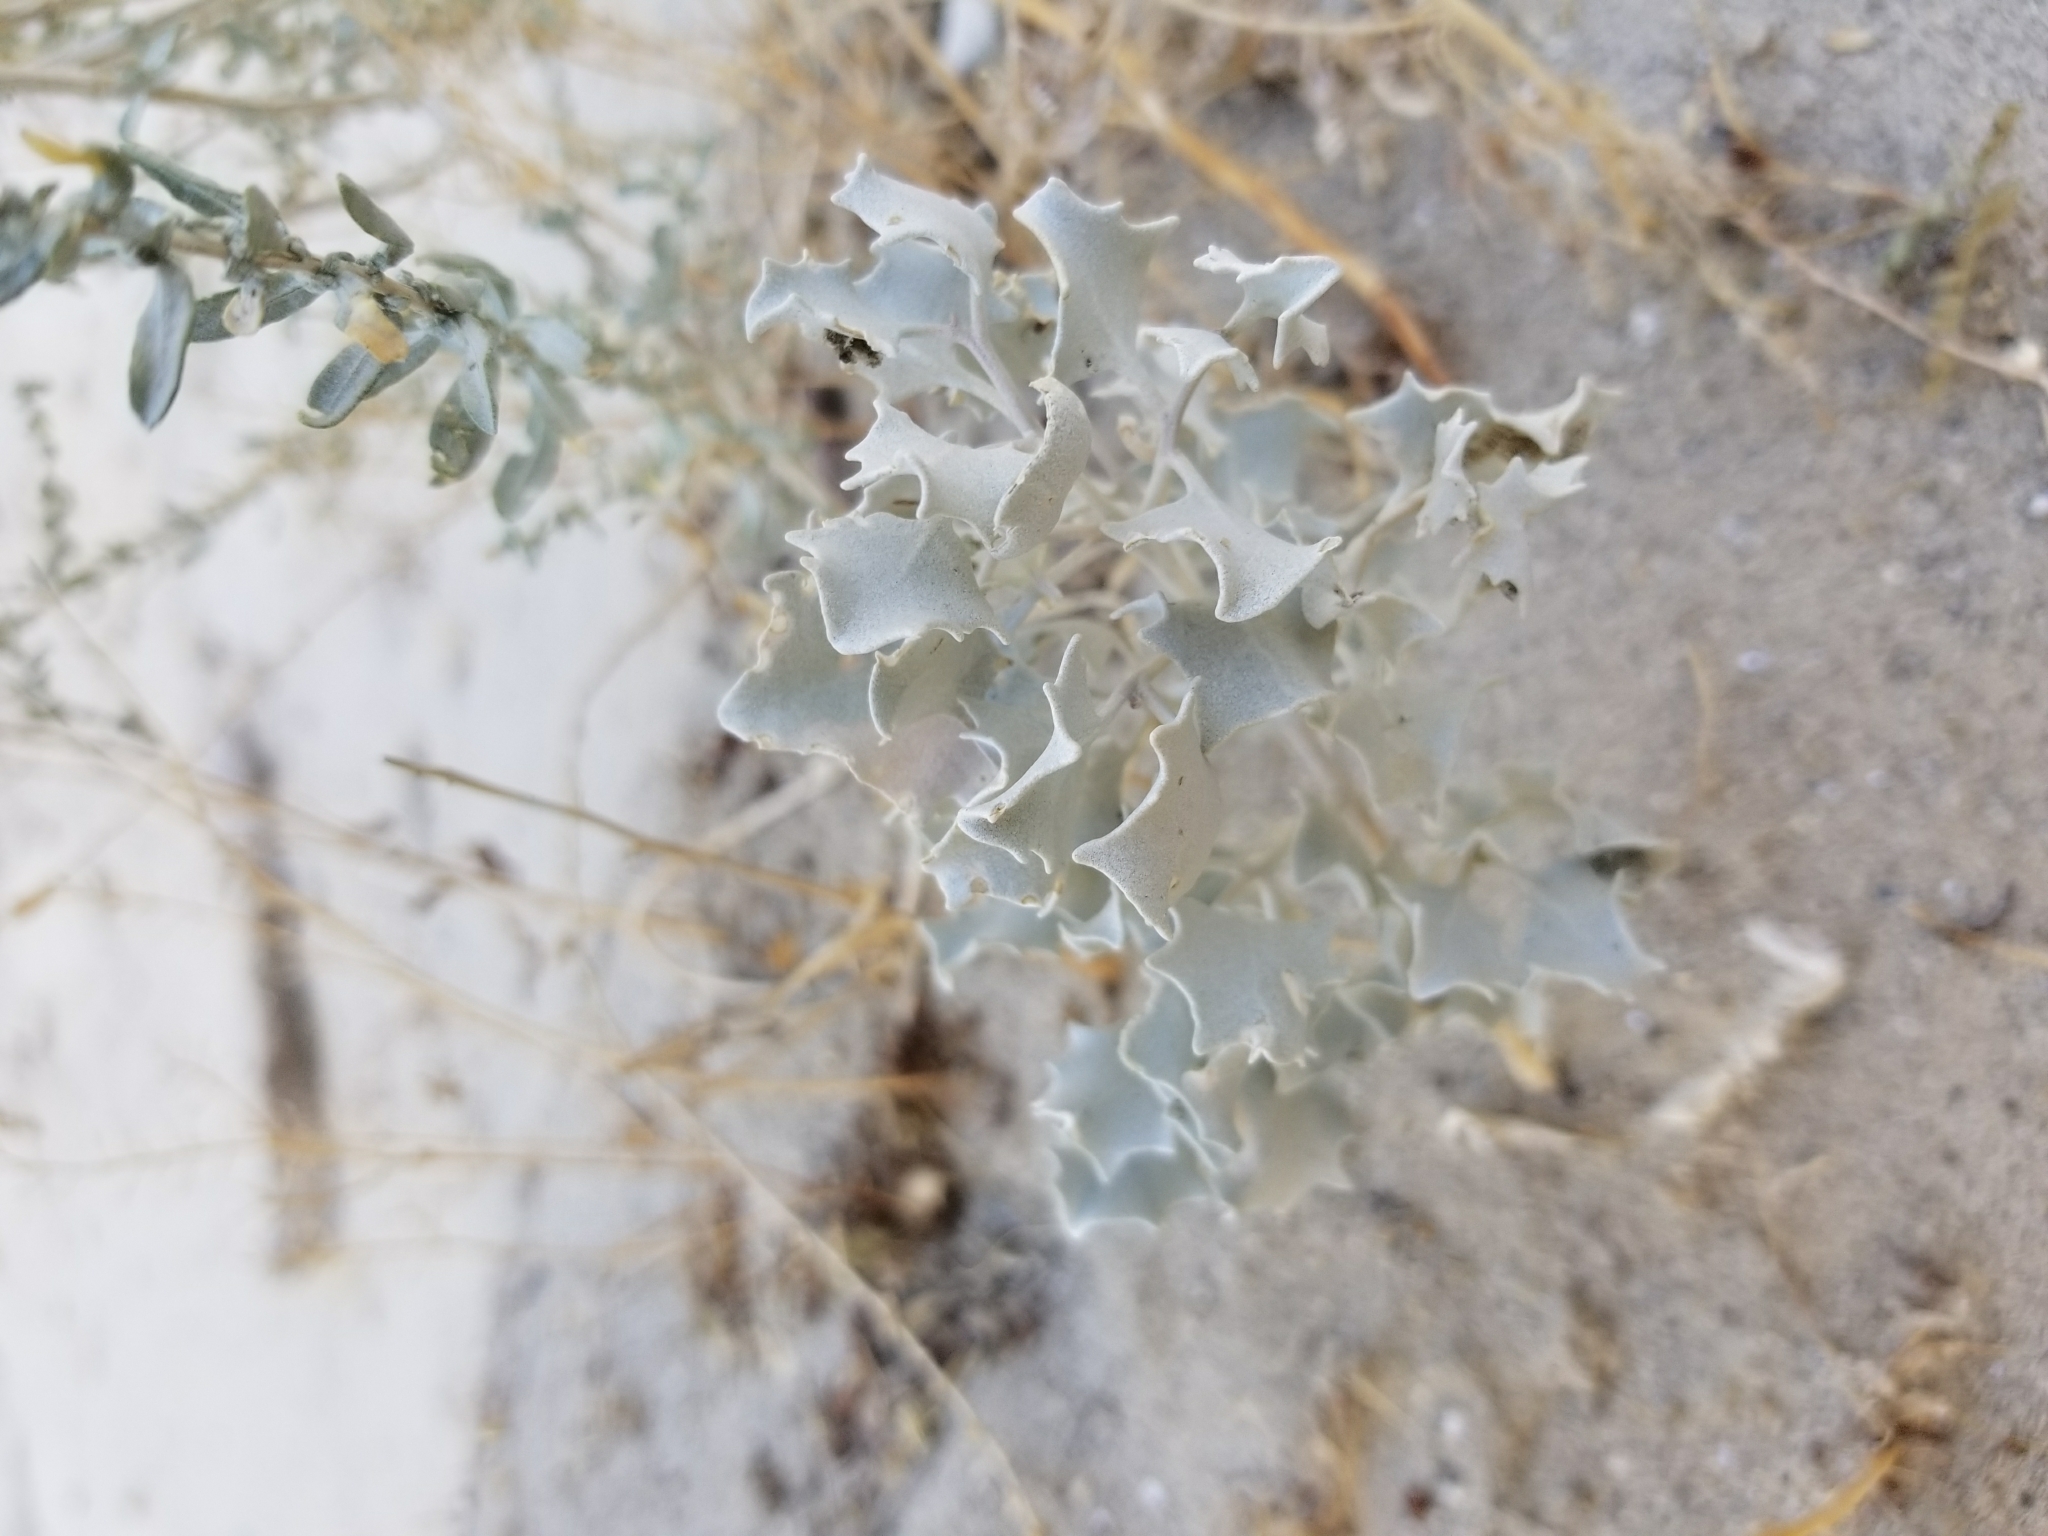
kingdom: Plantae
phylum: Tracheophyta
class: Magnoliopsida
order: Caryophyllales
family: Amaranthaceae
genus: Atriplex
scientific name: Atriplex hymenelytra
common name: Desert-holly
